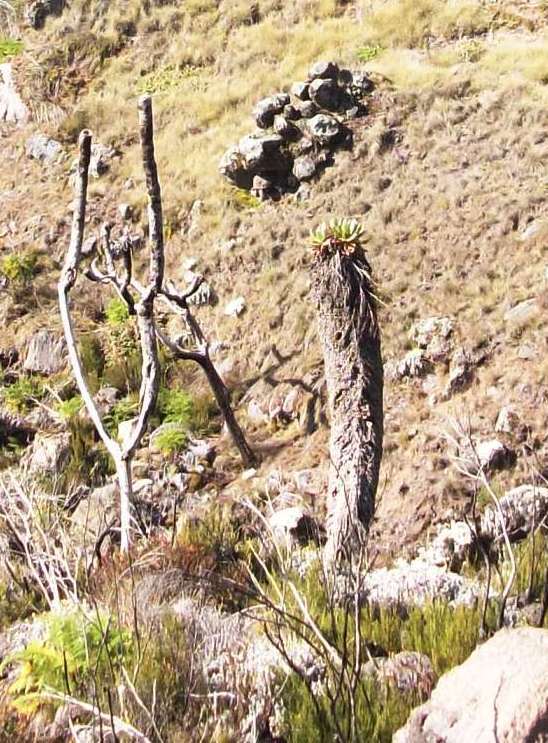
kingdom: Plantae
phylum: Tracheophyta
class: Magnoliopsida
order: Asterales
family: Asteraceae
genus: Dendrosenecio
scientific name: Dendrosenecio kilimanjari
